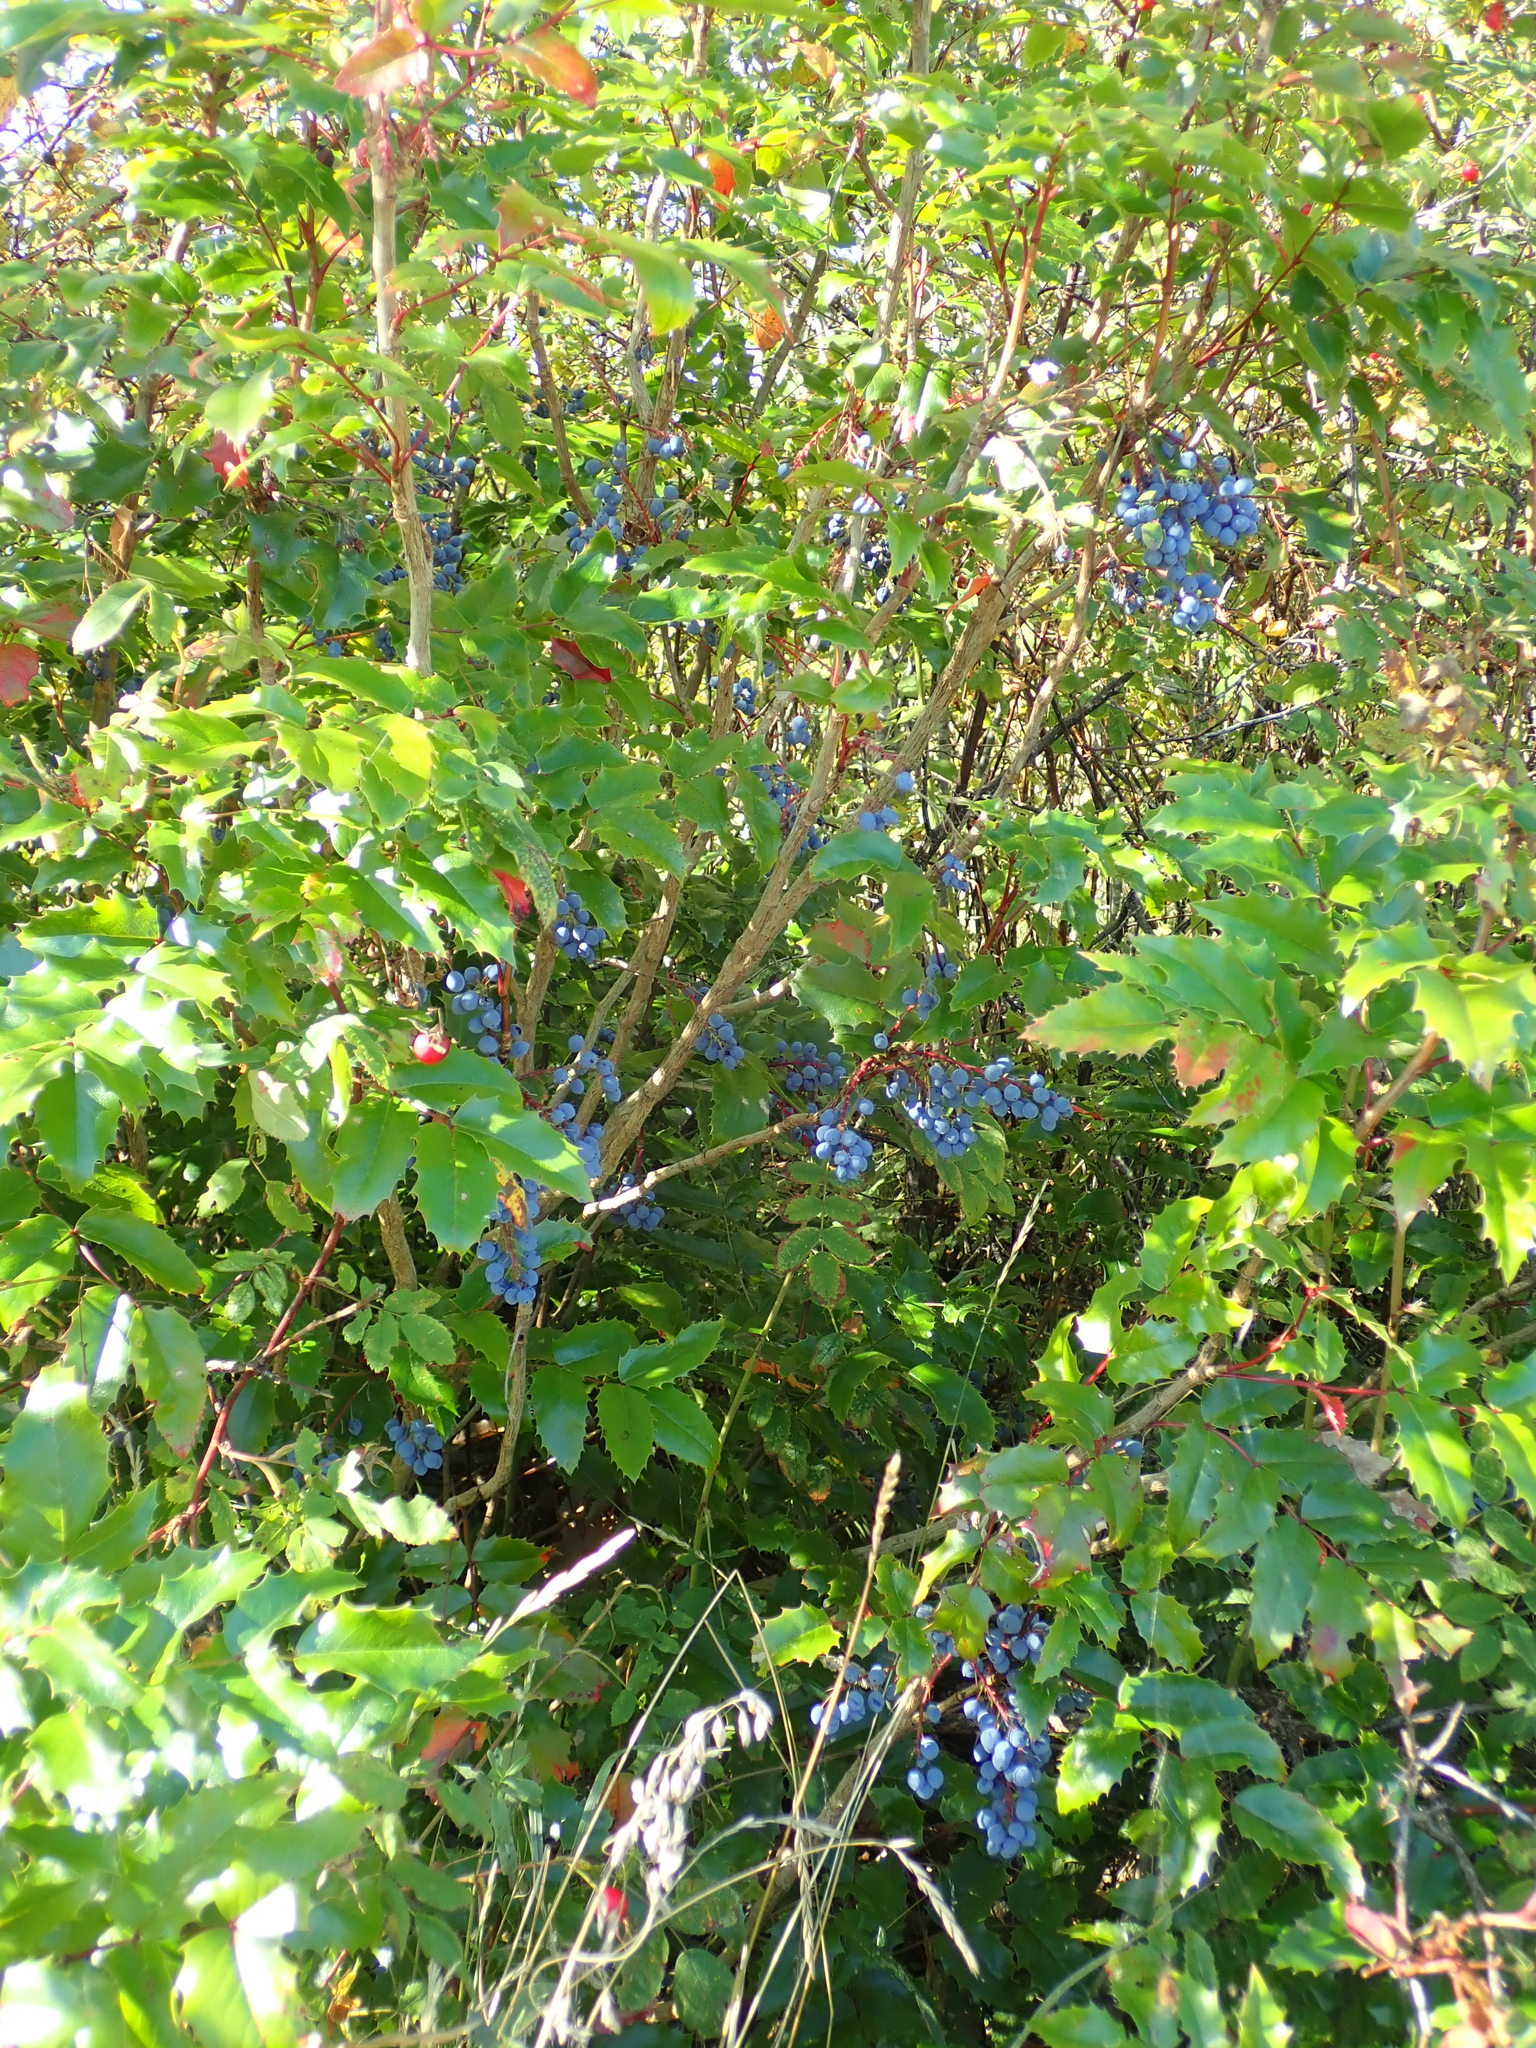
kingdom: Plantae
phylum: Tracheophyta
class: Magnoliopsida
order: Ranunculales
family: Berberidaceae
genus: Mahonia
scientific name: Mahonia aquifolium
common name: Oregon-grape
